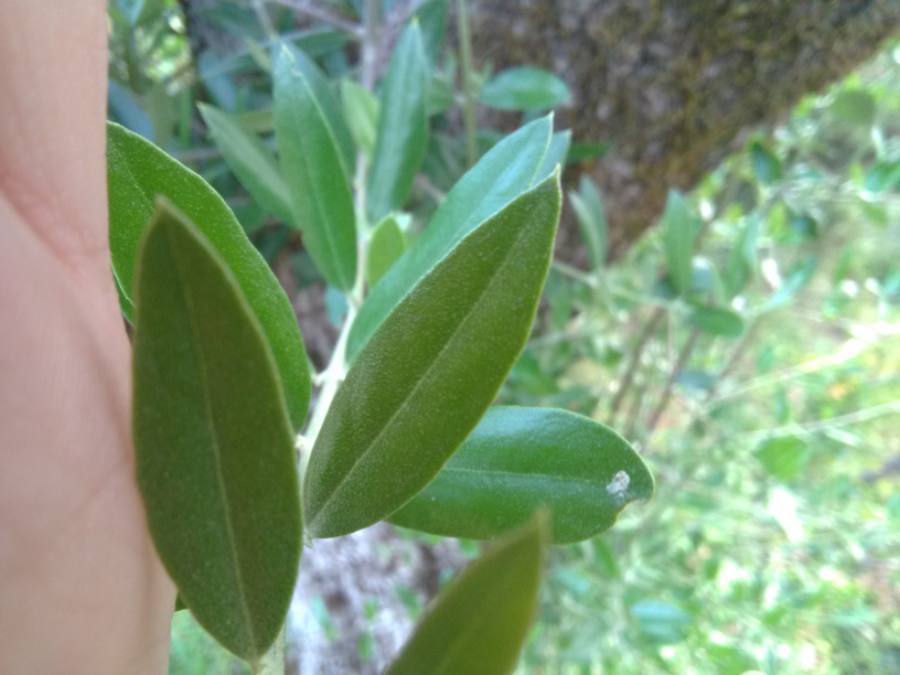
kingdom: Plantae
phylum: Tracheophyta
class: Magnoliopsida
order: Lamiales
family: Oleaceae
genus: Olea
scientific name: Olea europaea
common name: Olive
